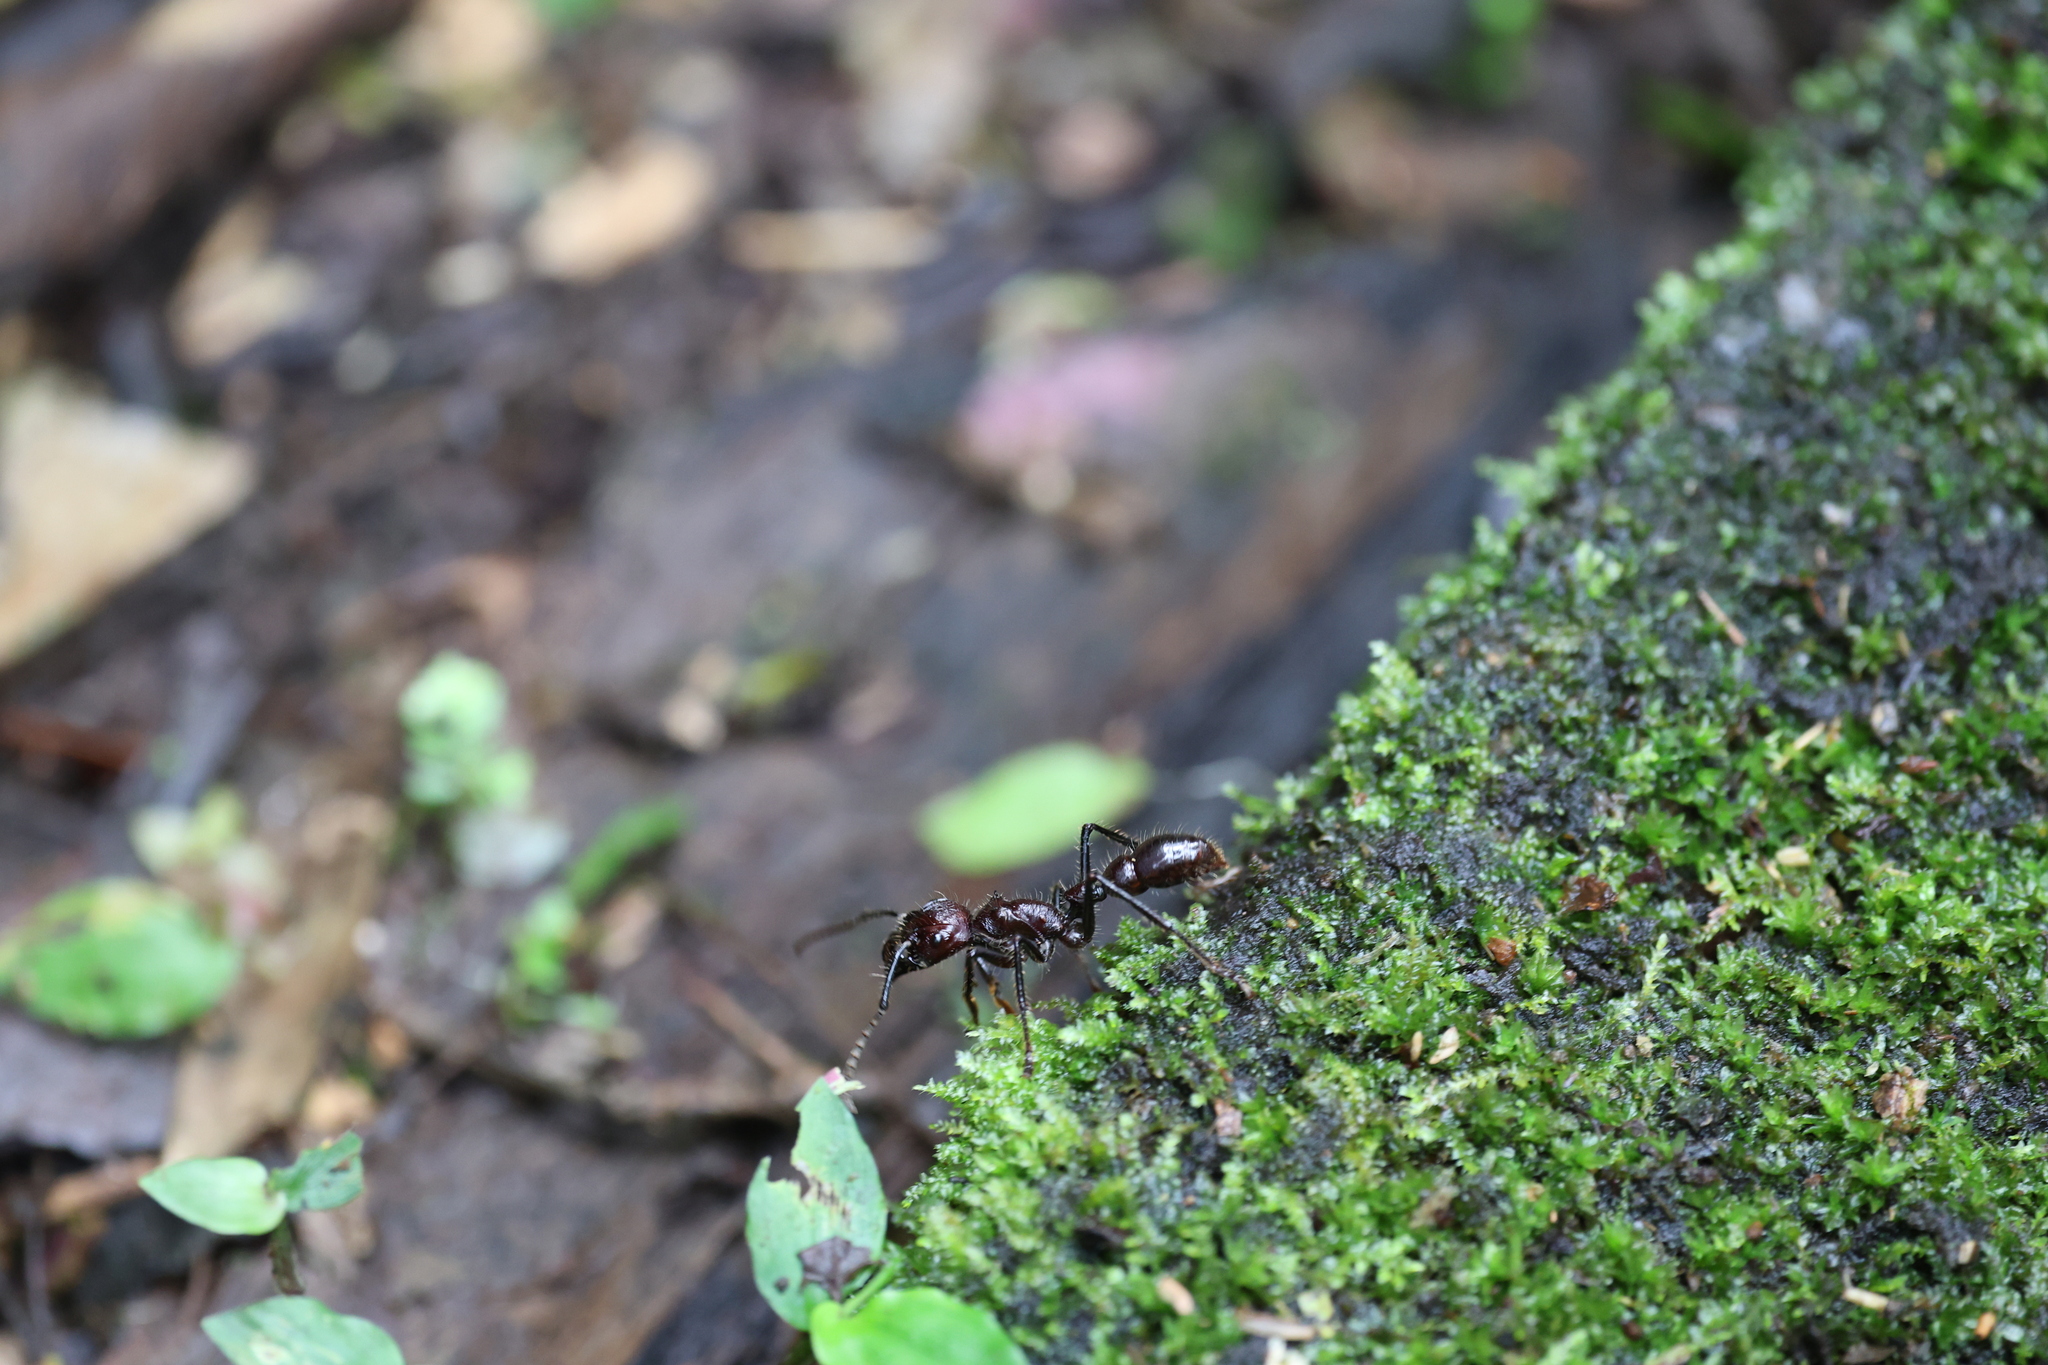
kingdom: Animalia
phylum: Arthropoda
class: Insecta
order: Hymenoptera
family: Formicidae
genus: Paraponera
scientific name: Paraponera clavata
